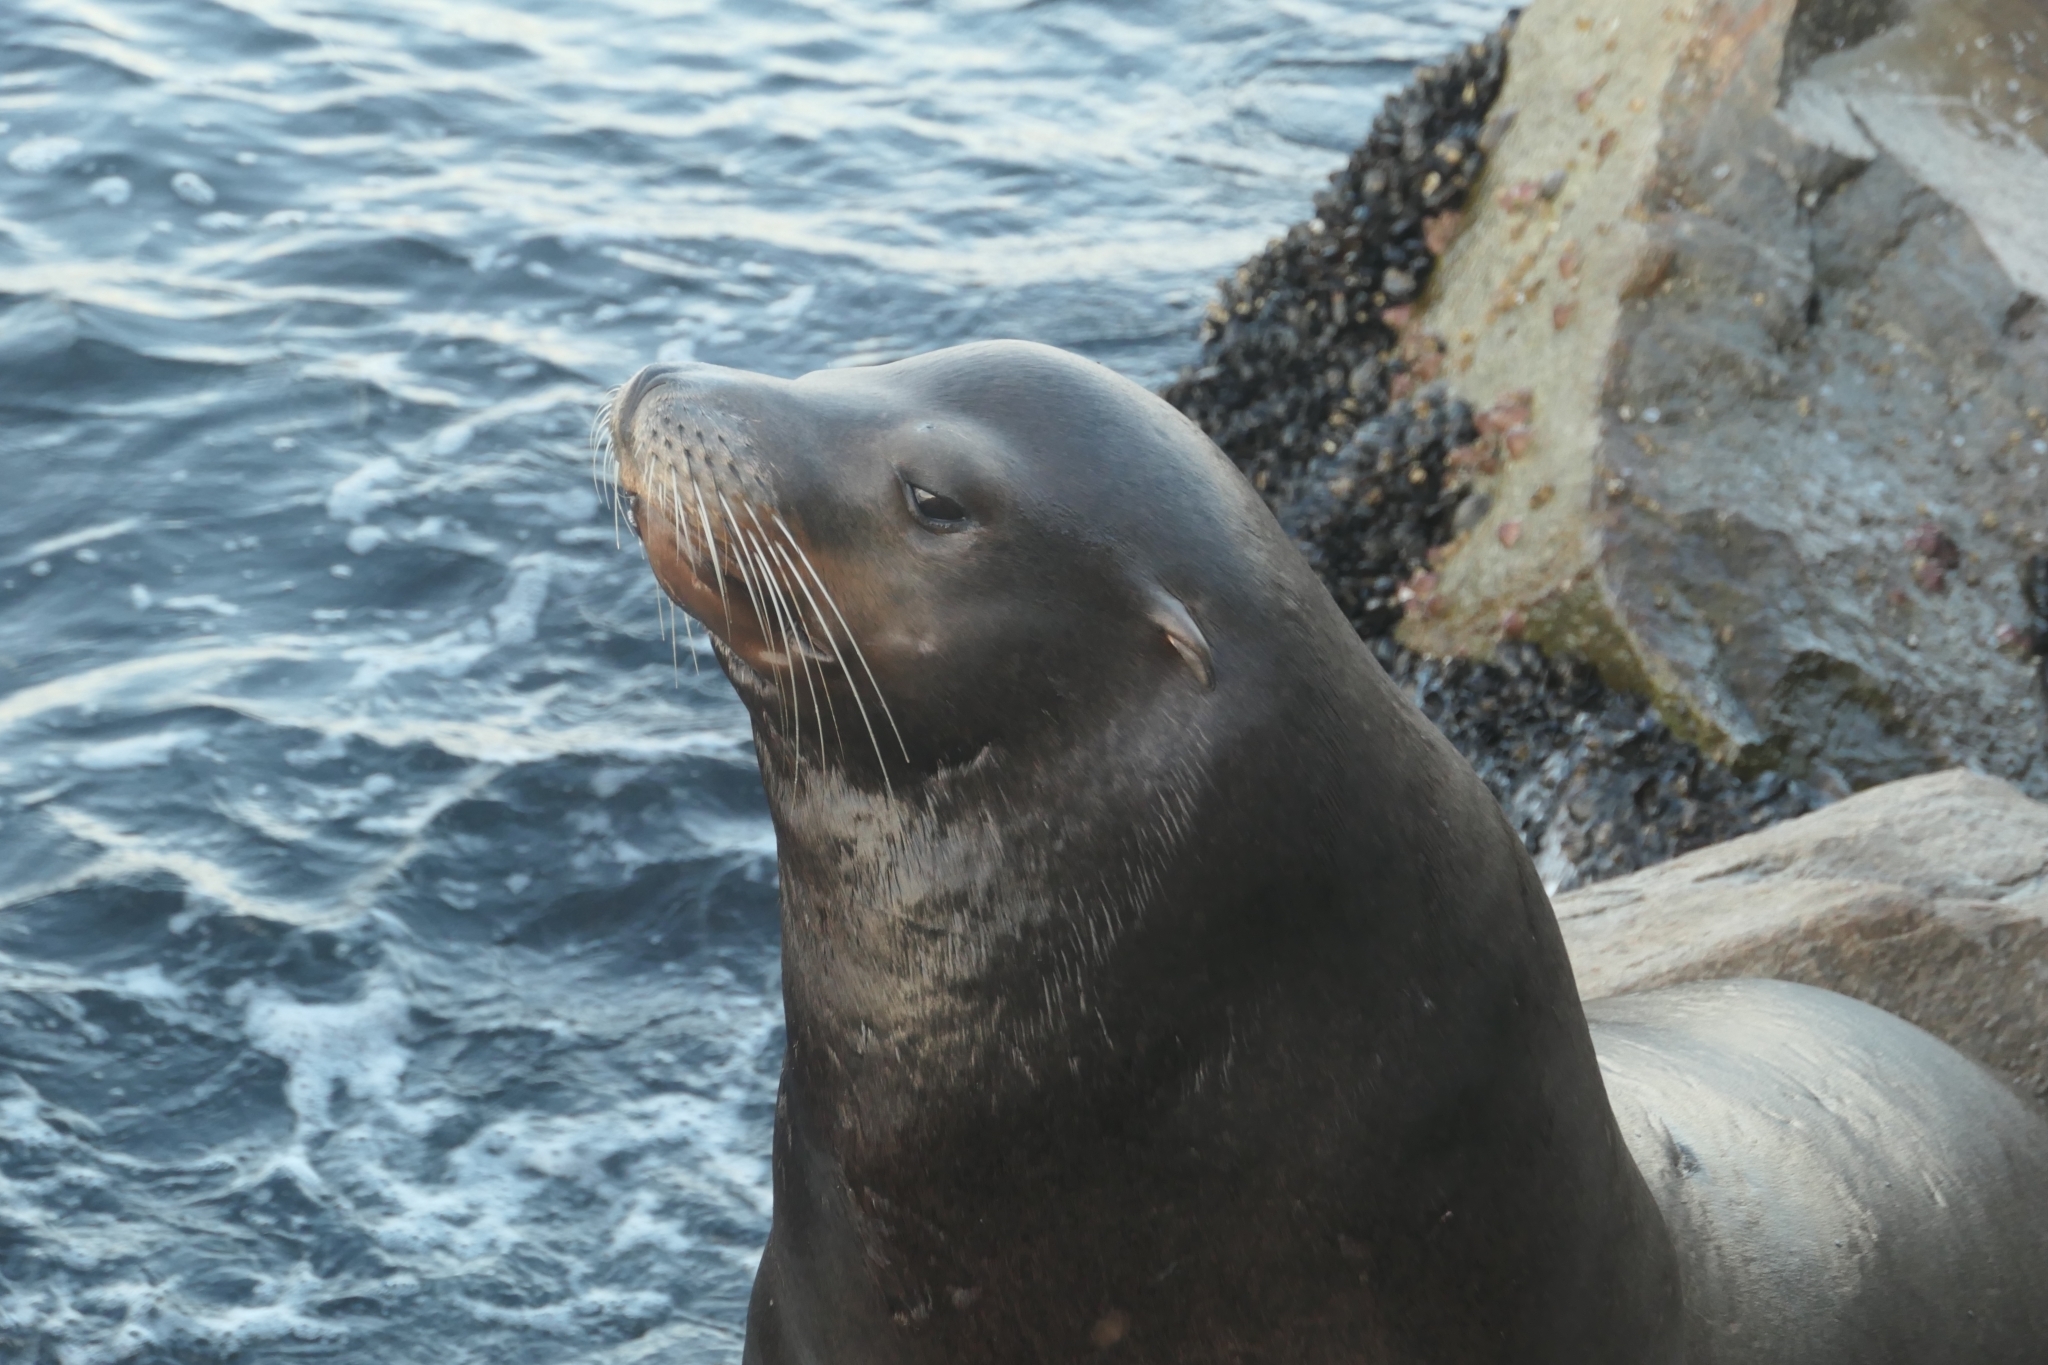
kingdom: Animalia
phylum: Chordata
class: Mammalia
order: Carnivora
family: Otariidae
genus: Zalophus
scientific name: Zalophus californianus
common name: California sea lion
